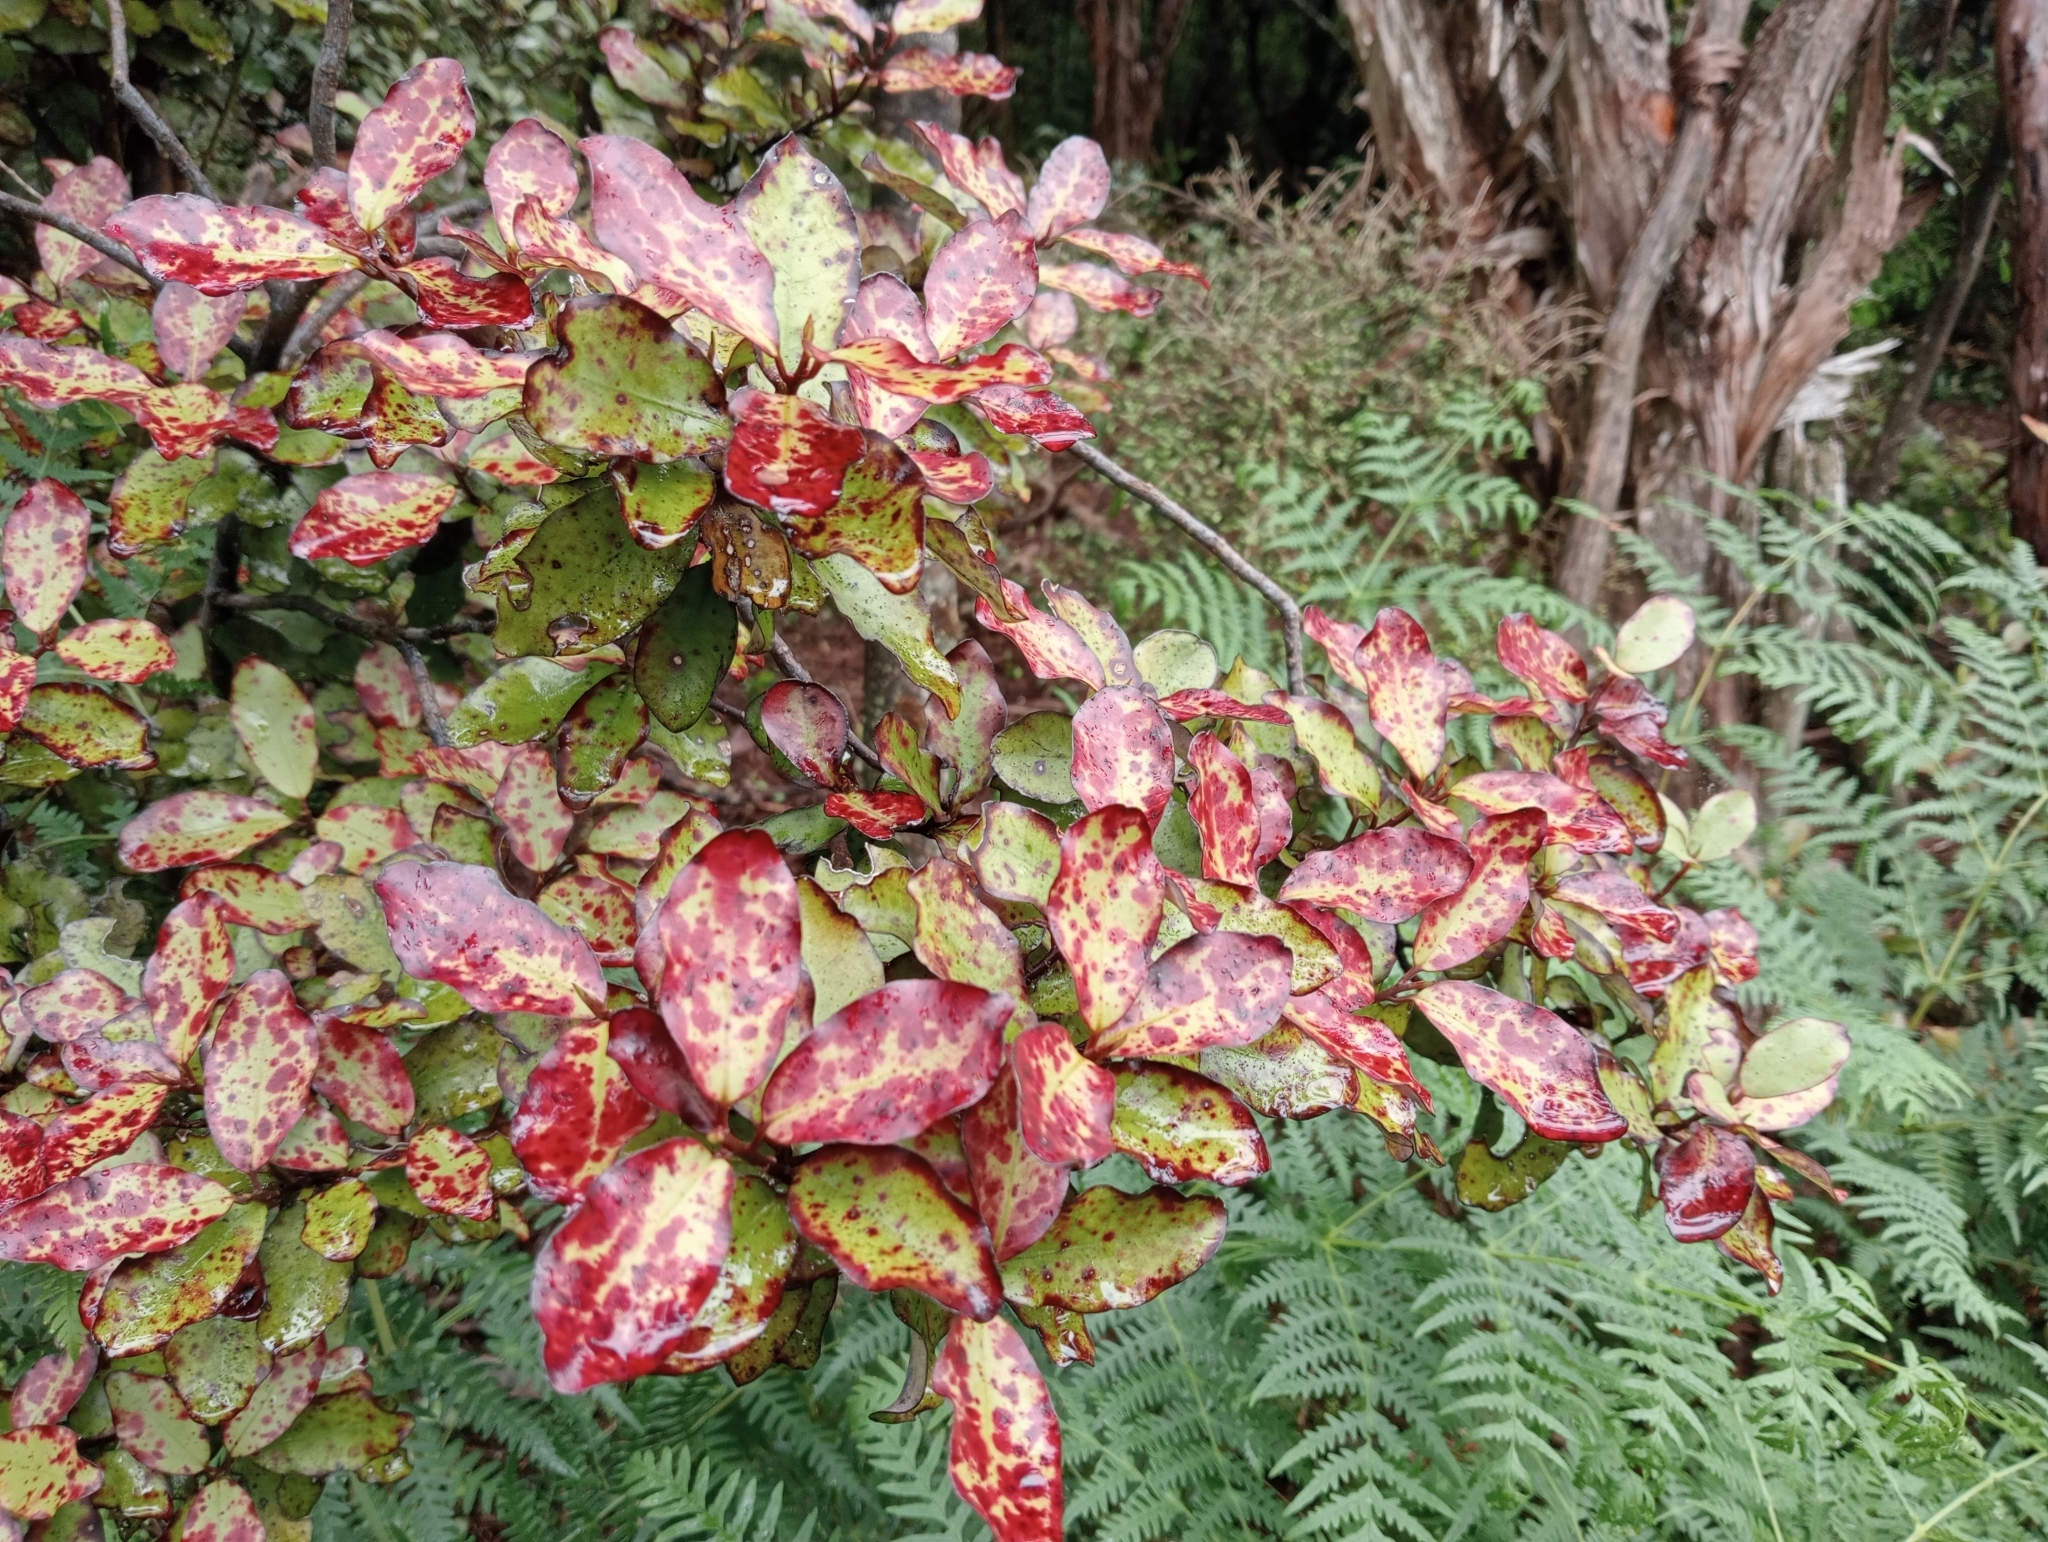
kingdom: Plantae
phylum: Tracheophyta
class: Magnoliopsida
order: Canellales
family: Winteraceae
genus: Pseudowintera
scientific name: Pseudowintera colorata
